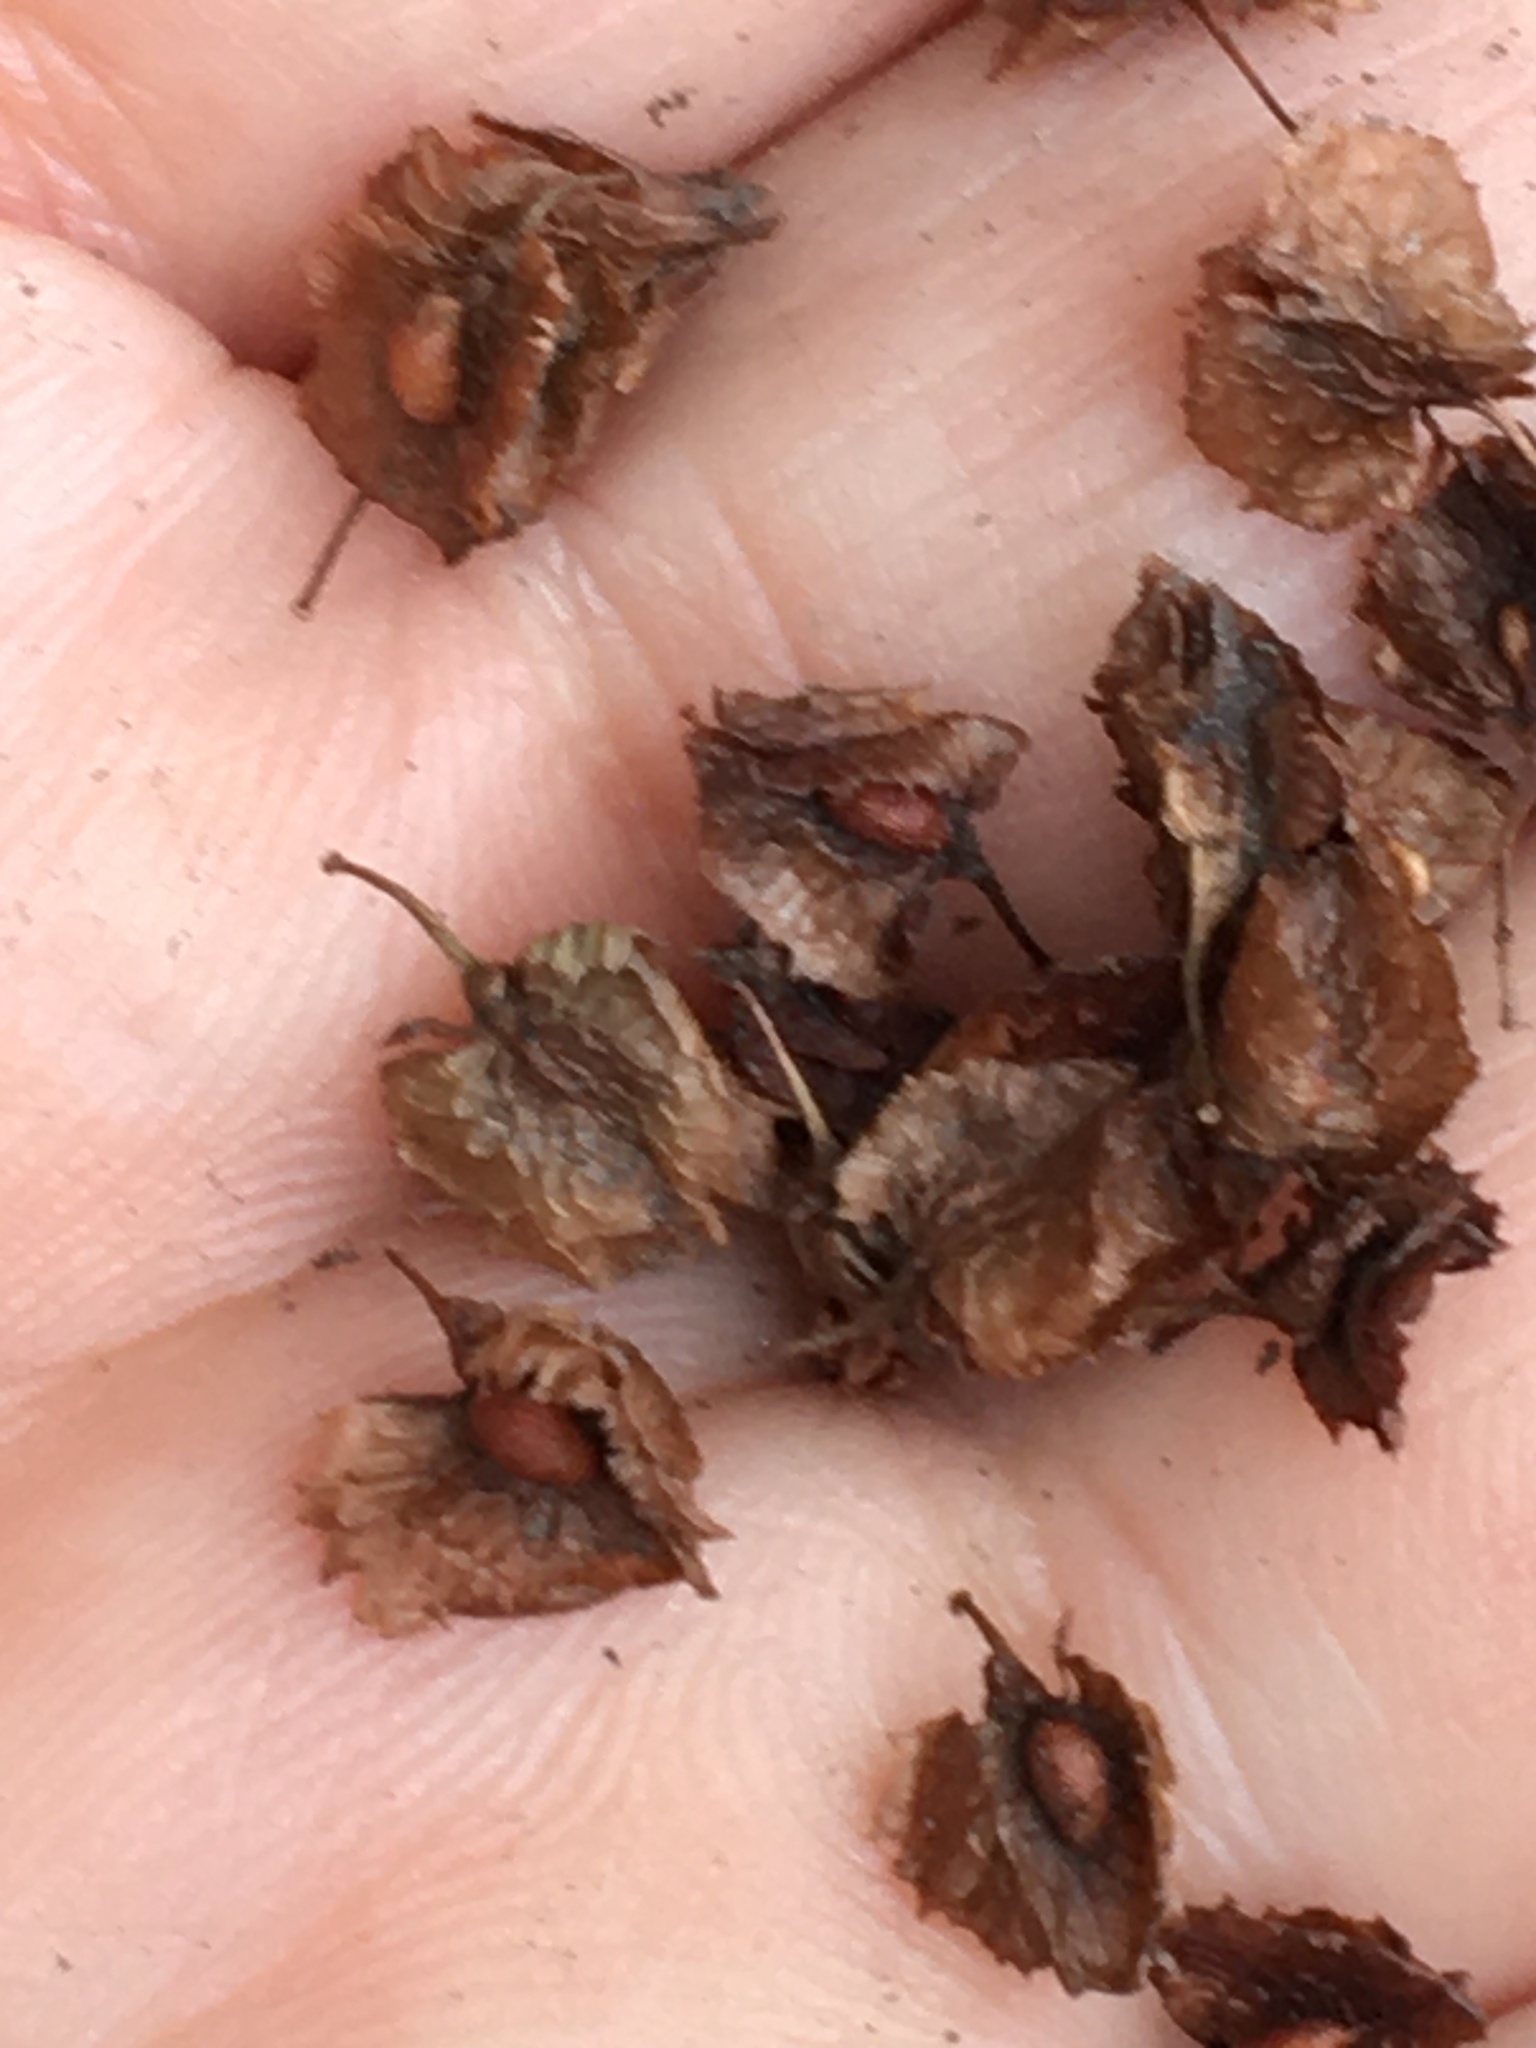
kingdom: Plantae
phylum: Tracheophyta
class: Magnoliopsida
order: Caryophyllales
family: Polygonaceae
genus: Rumex
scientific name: Rumex cristatus
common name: Greek dock
